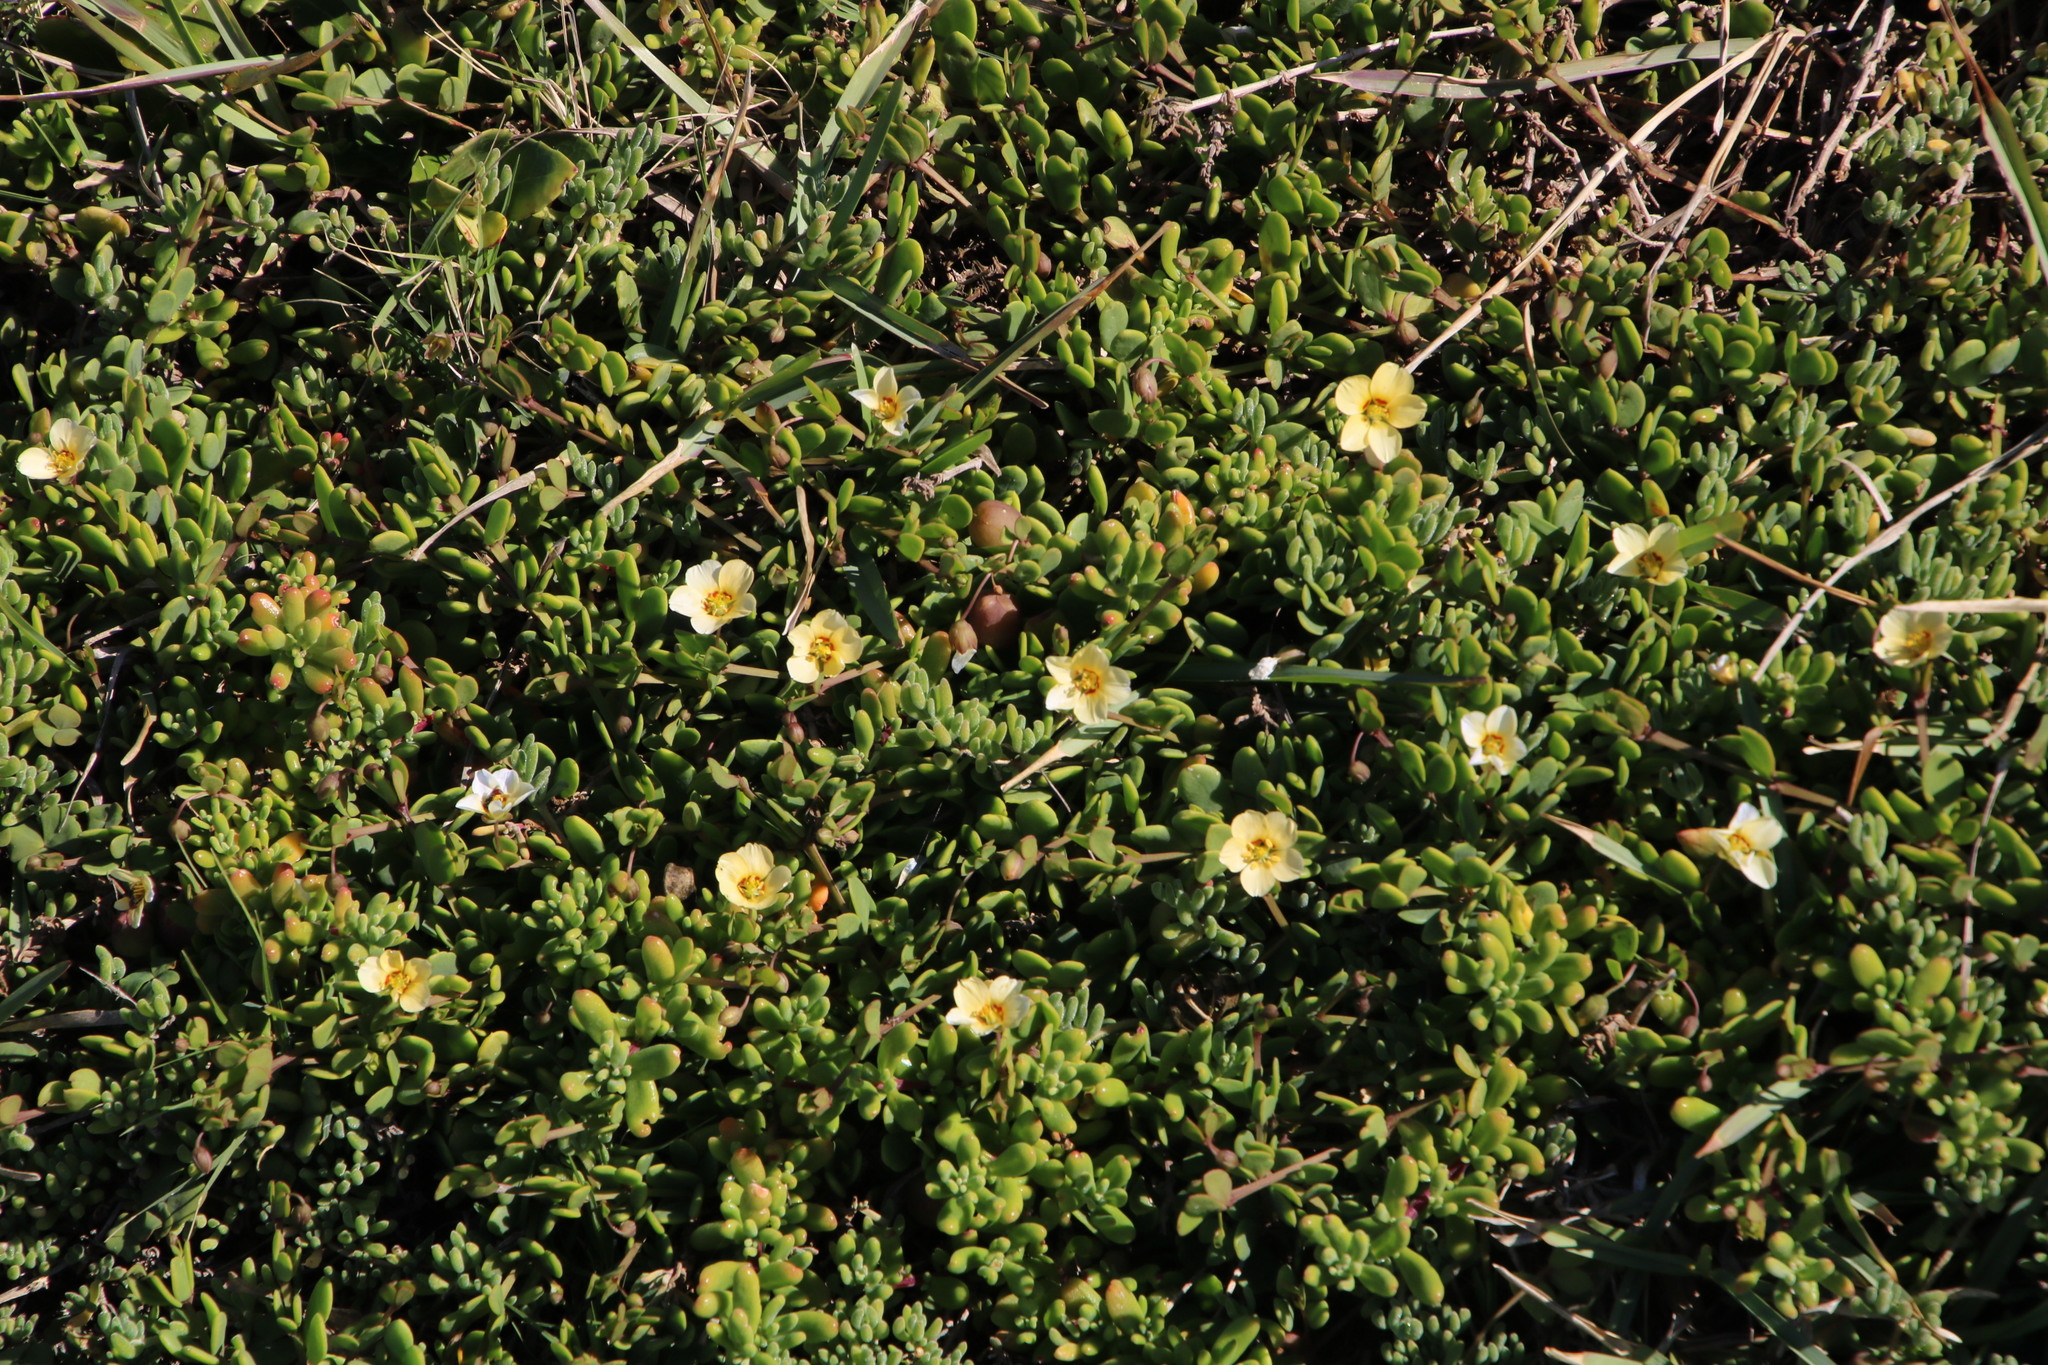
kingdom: Plantae
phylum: Tracheophyta
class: Magnoliopsida
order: Zygophyllales
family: Zygophyllaceae
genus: Roepera
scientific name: Roepera maritima
